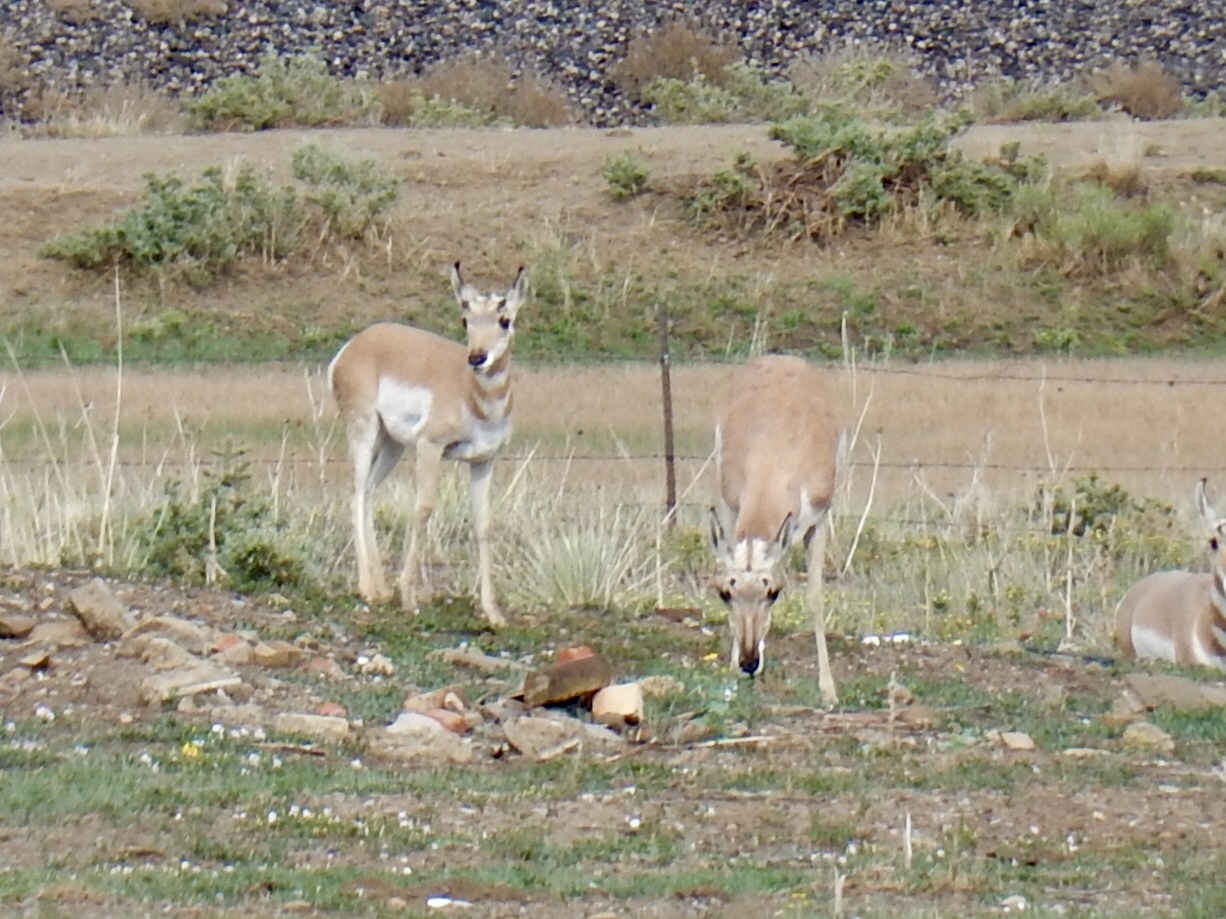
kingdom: Animalia
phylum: Chordata
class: Mammalia
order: Artiodactyla
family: Antilocapridae
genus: Antilocapra
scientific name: Antilocapra americana
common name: Pronghorn
